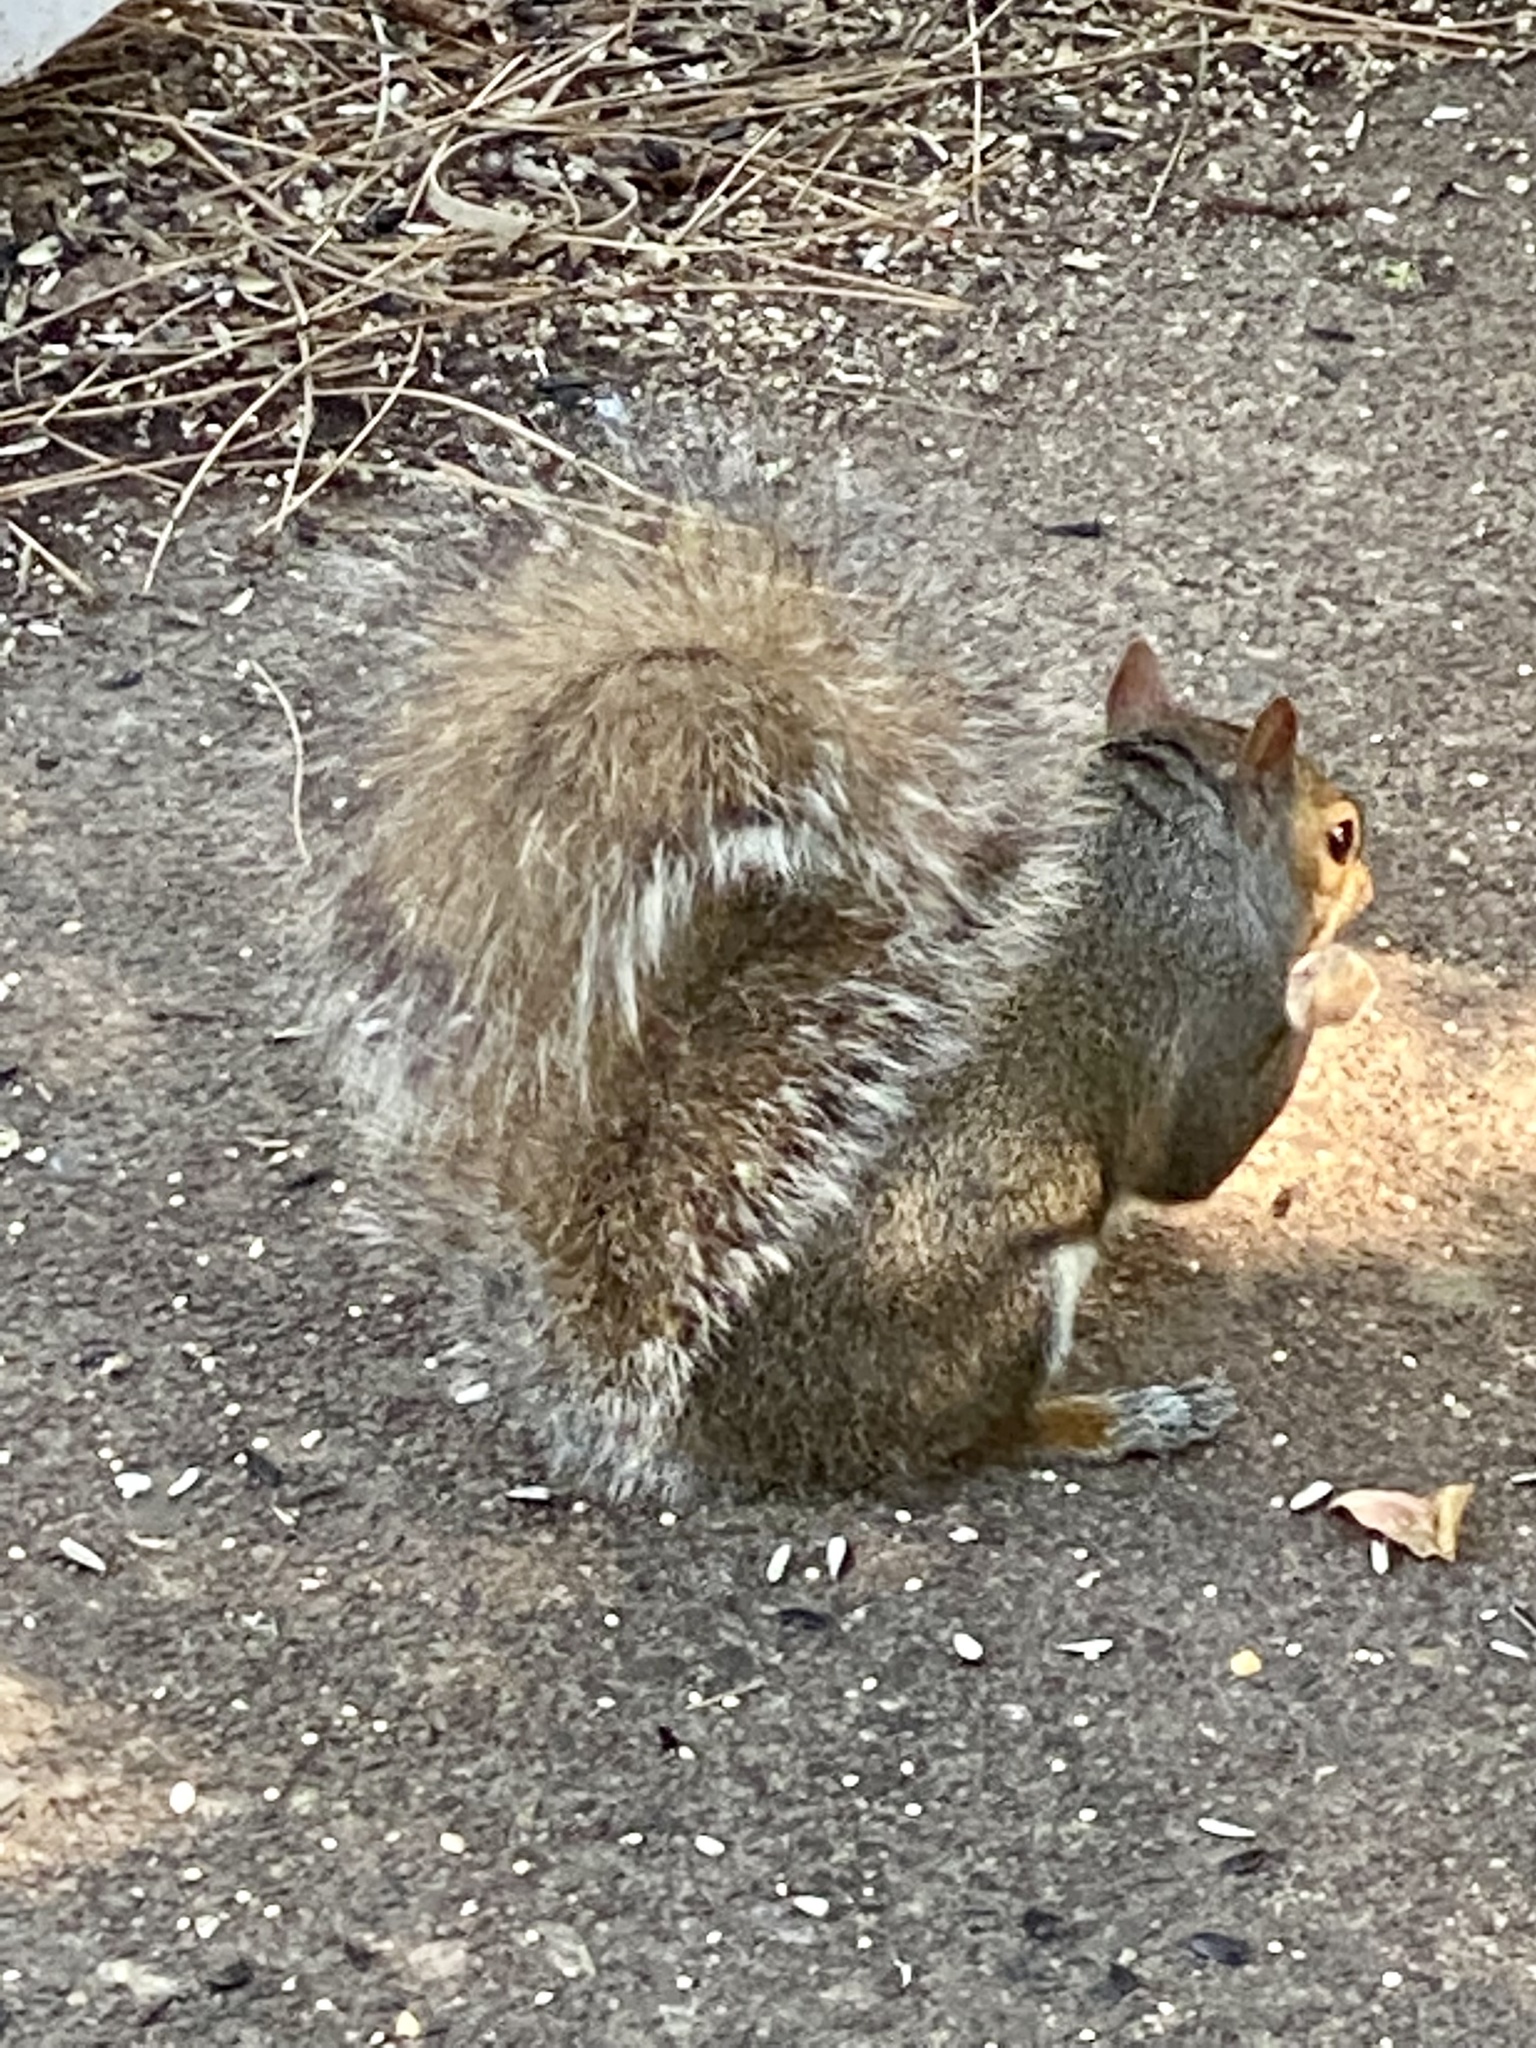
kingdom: Animalia
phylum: Chordata
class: Mammalia
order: Rodentia
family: Sciuridae
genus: Sciurus
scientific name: Sciurus carolinensis
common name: Eastern gray squirrel
